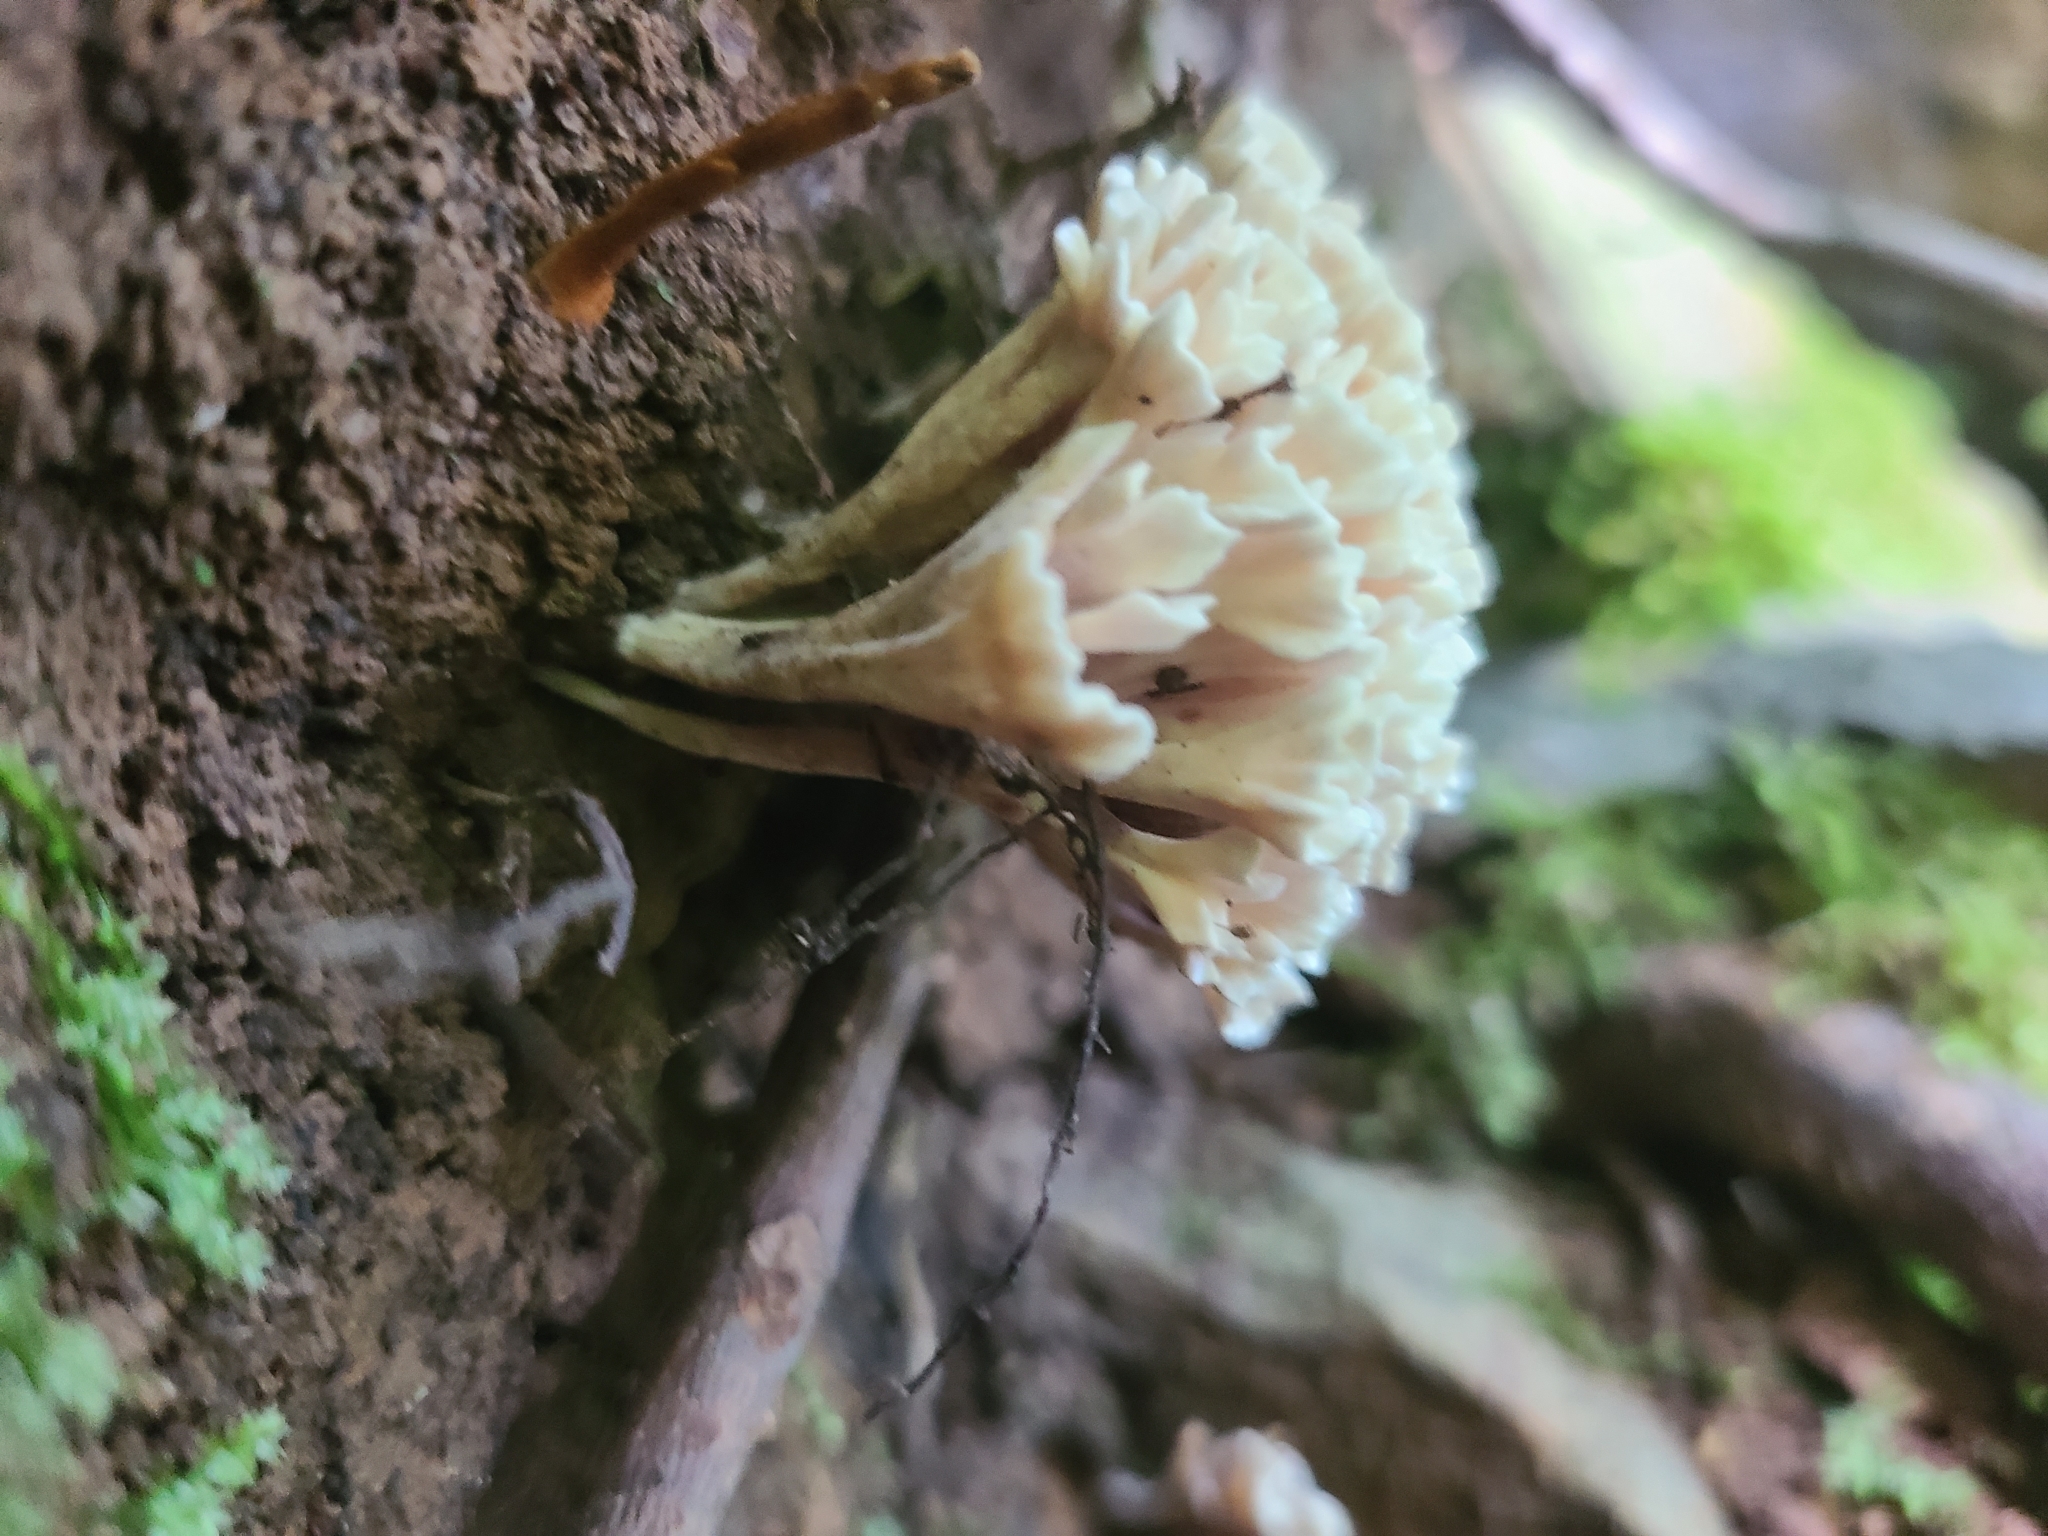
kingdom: Fungi
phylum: Basidiomycota
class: Agaricomycetes
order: Sebacinales
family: Sebacinaceae
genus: Sebacina
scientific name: Sebacina schweinitzii
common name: Jellied false coral fungus
